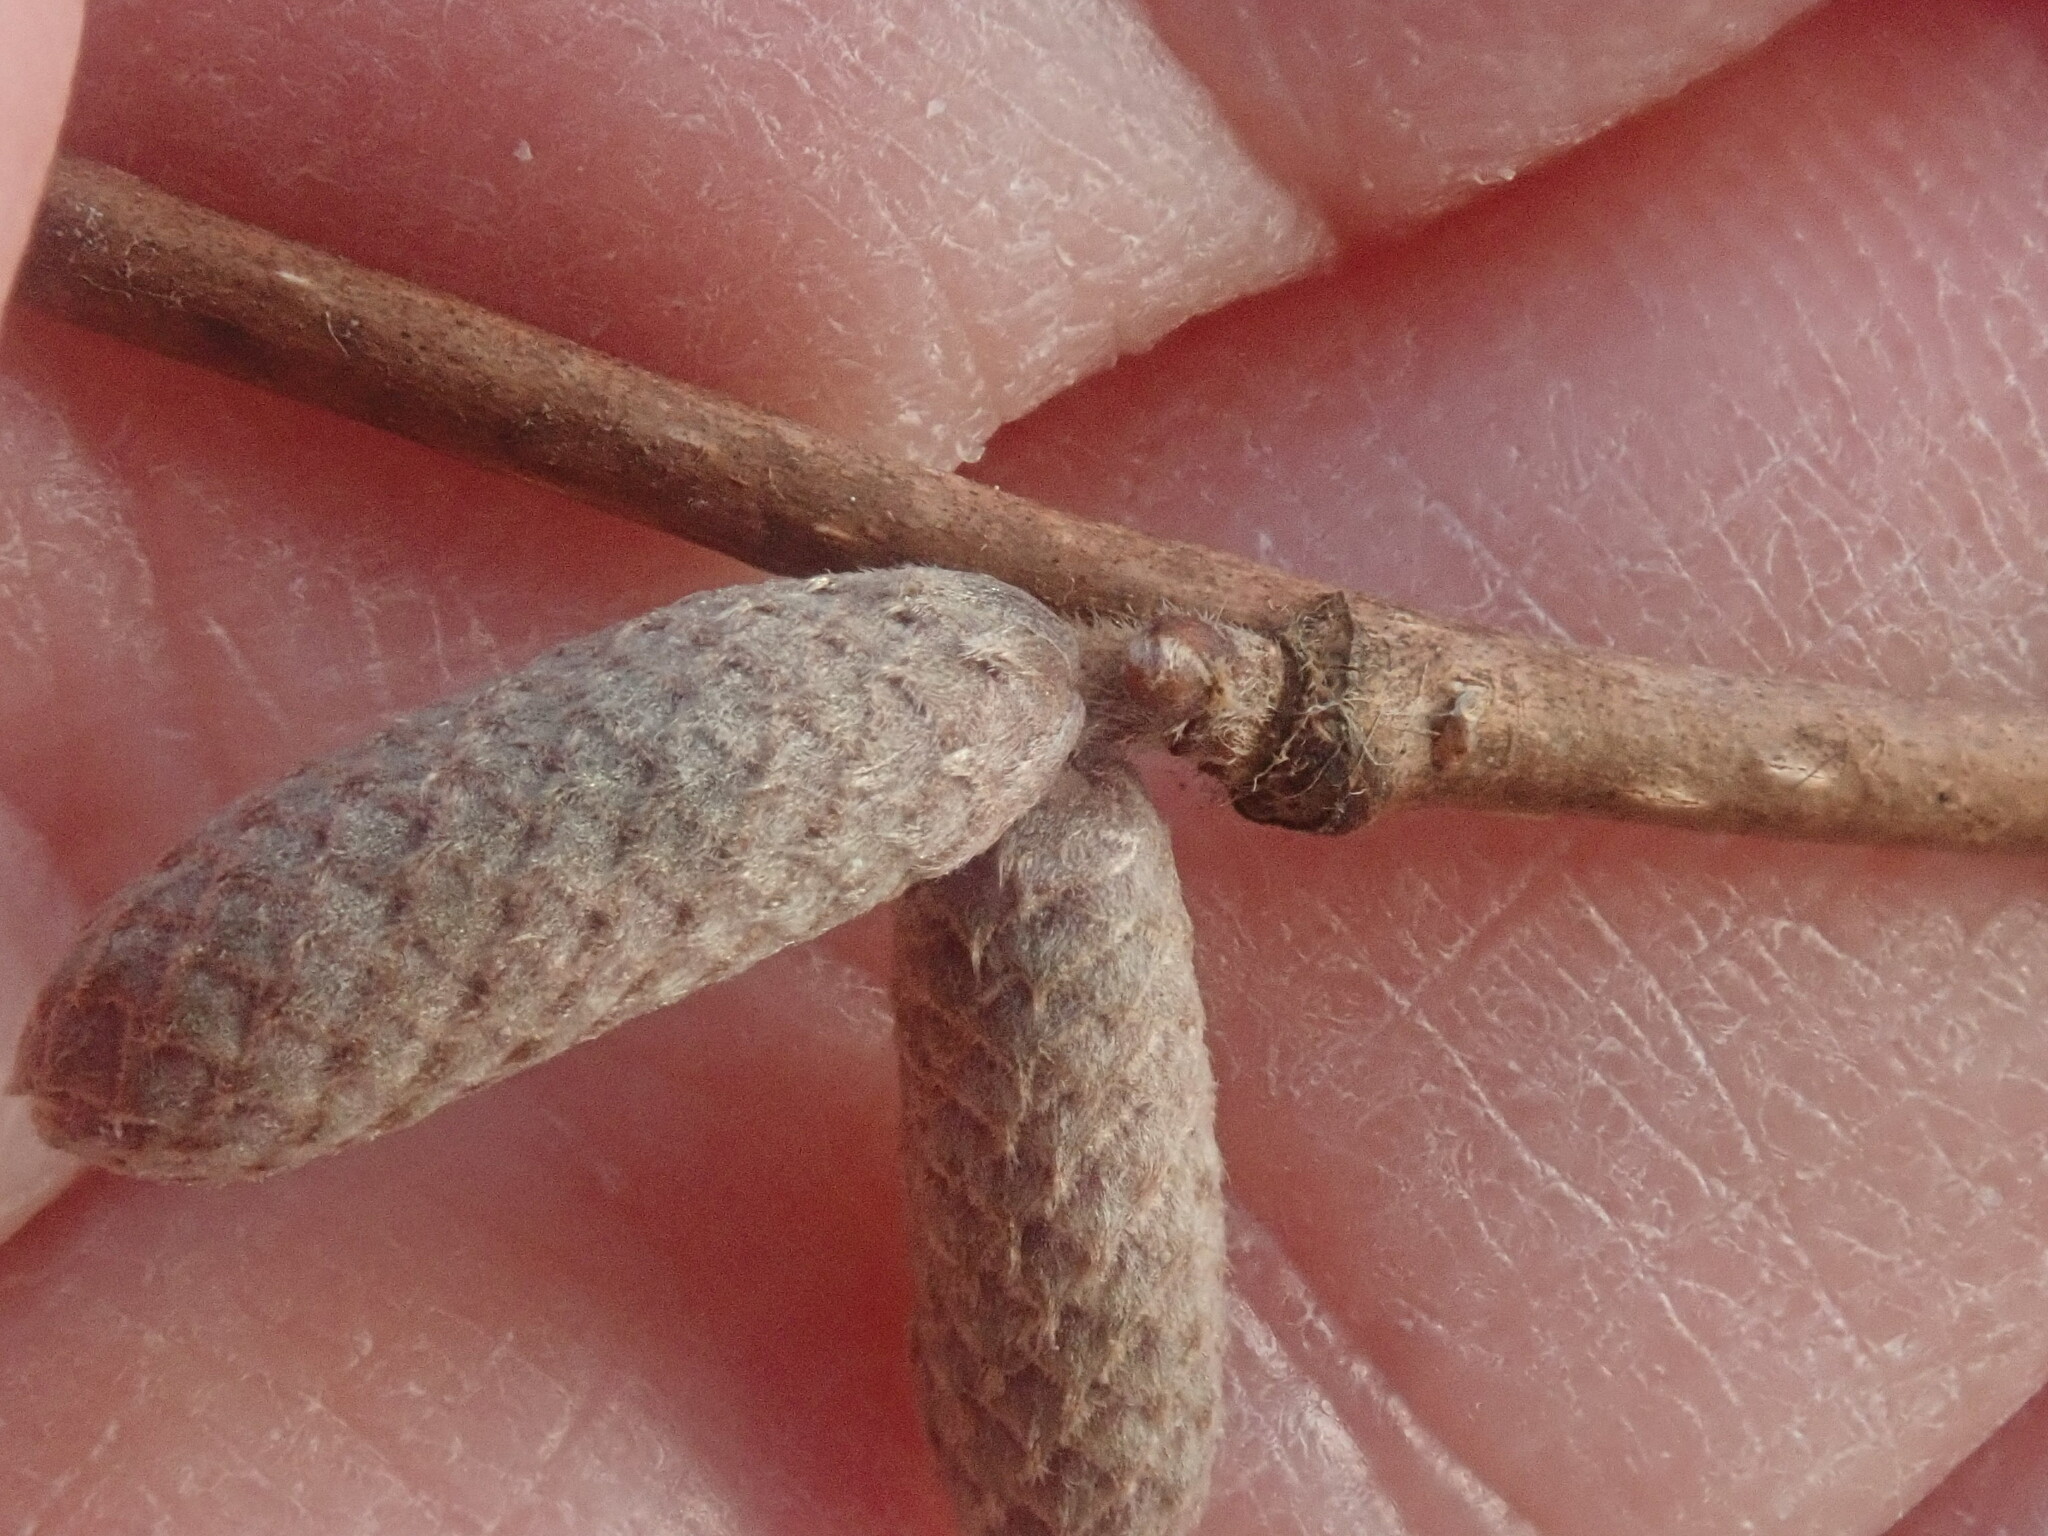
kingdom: Plantae
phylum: Tracheophyta
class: Magnoliopsida
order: Fagales
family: Betulaceae
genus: Corylus
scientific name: Corylus cornuta
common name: Beaked hazel
